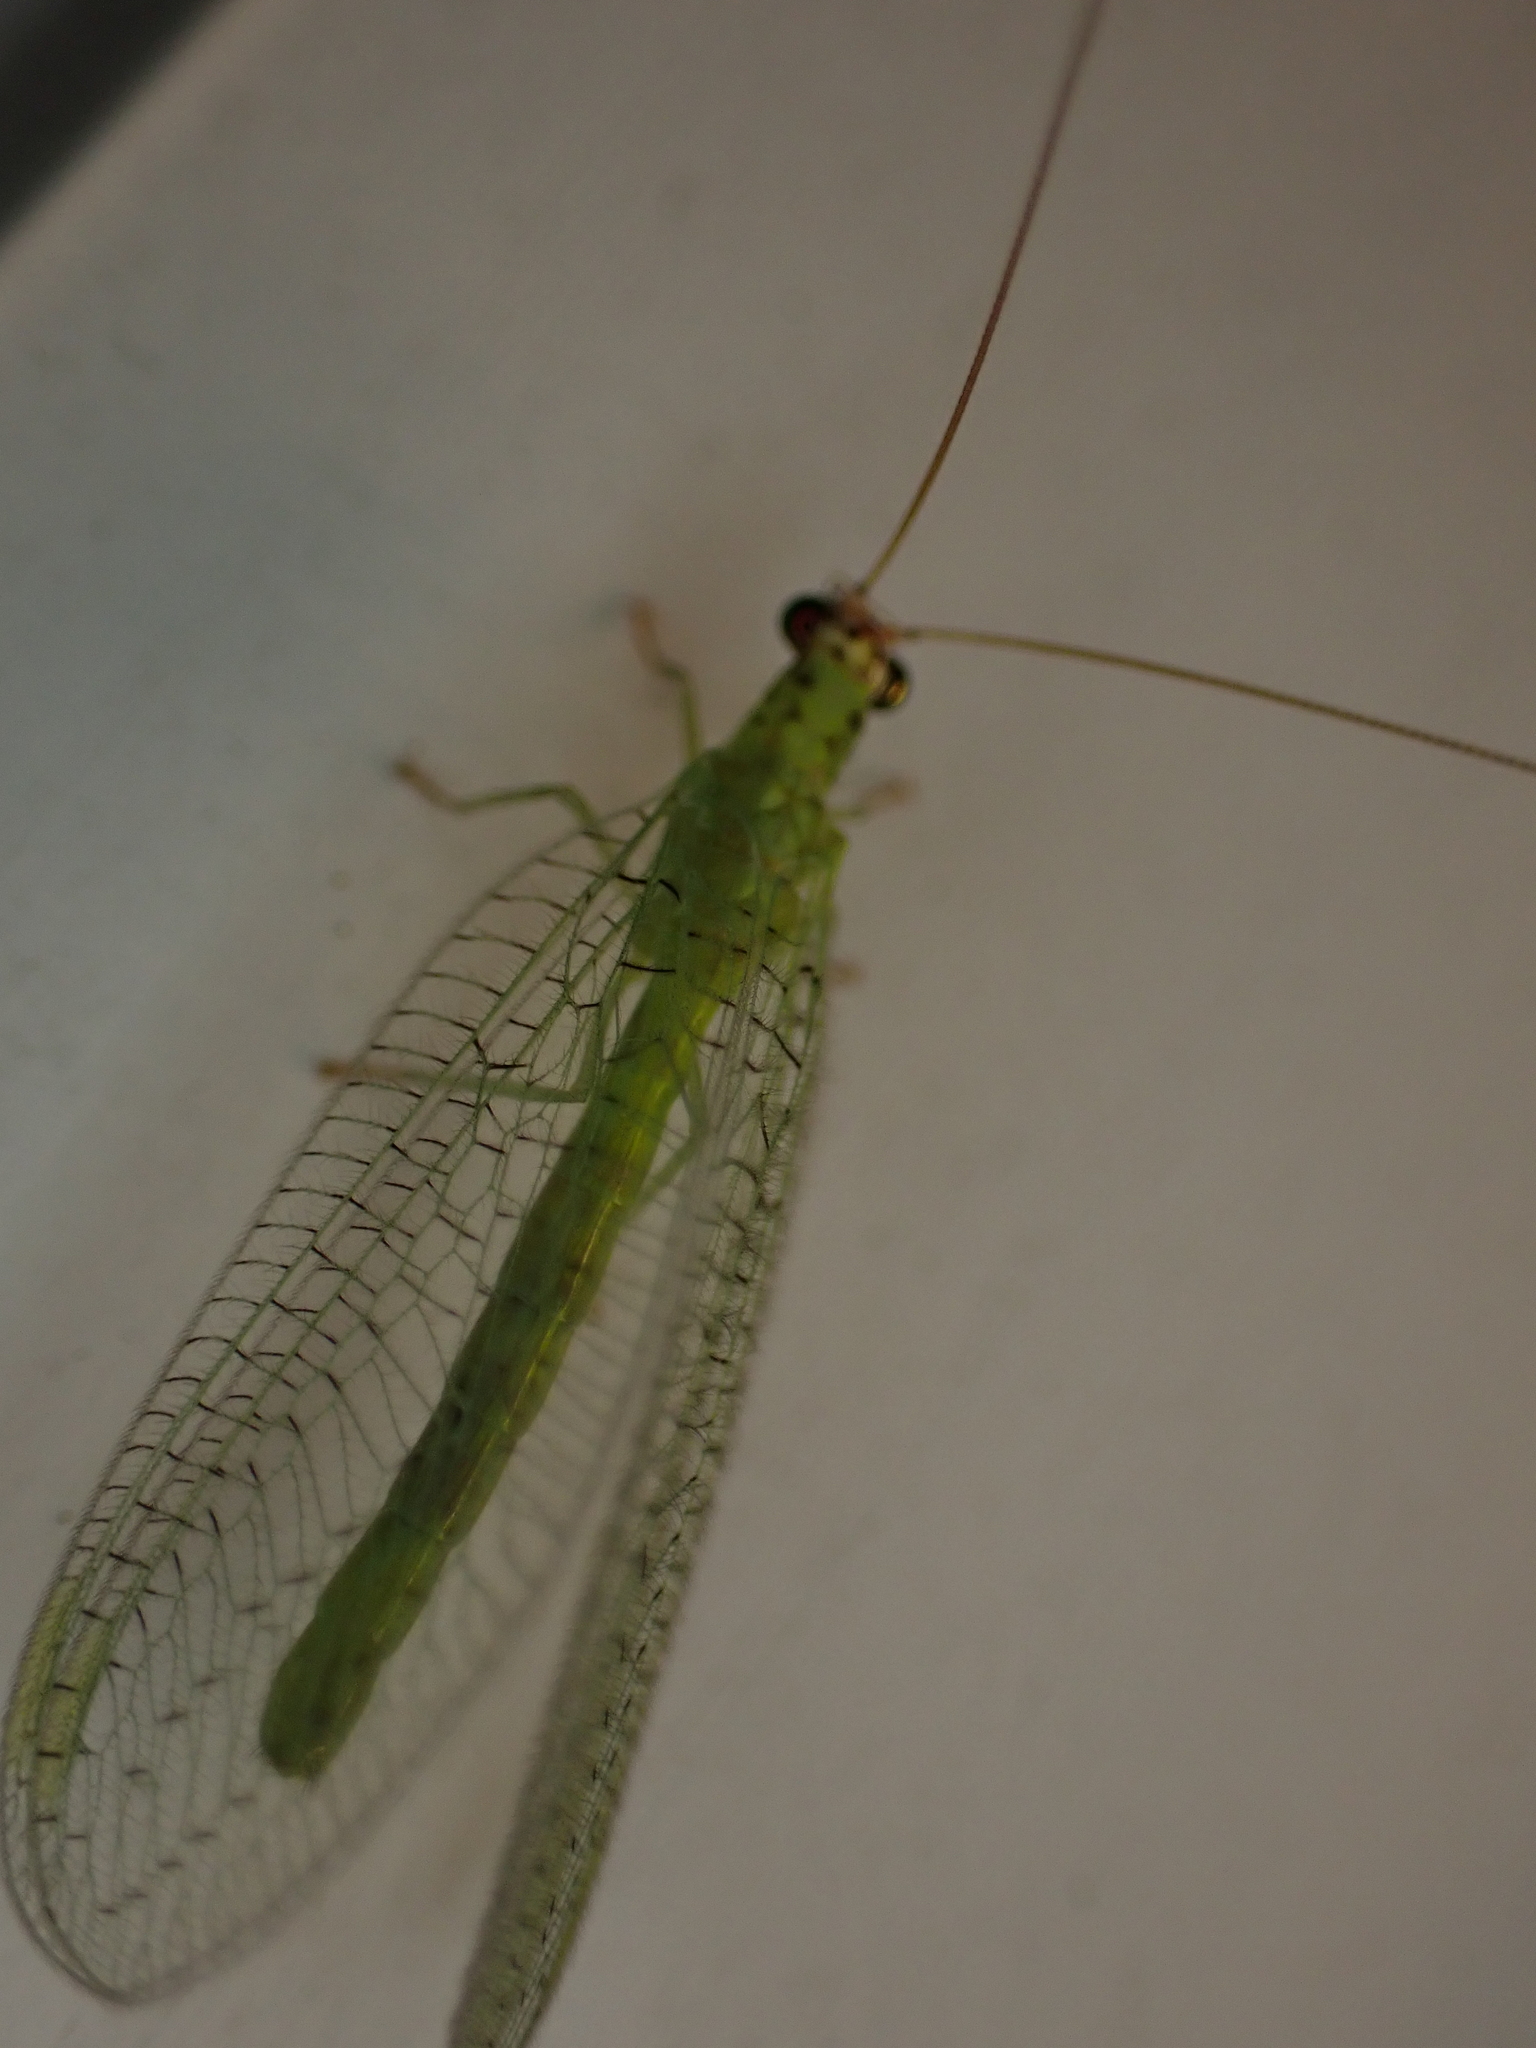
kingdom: Animalia
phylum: Arthropoda
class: Insecta
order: Neuroptera
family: Chrysopidae
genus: Chrysopa
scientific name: Chrysopa oculata
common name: Golden-eyed lacewing
